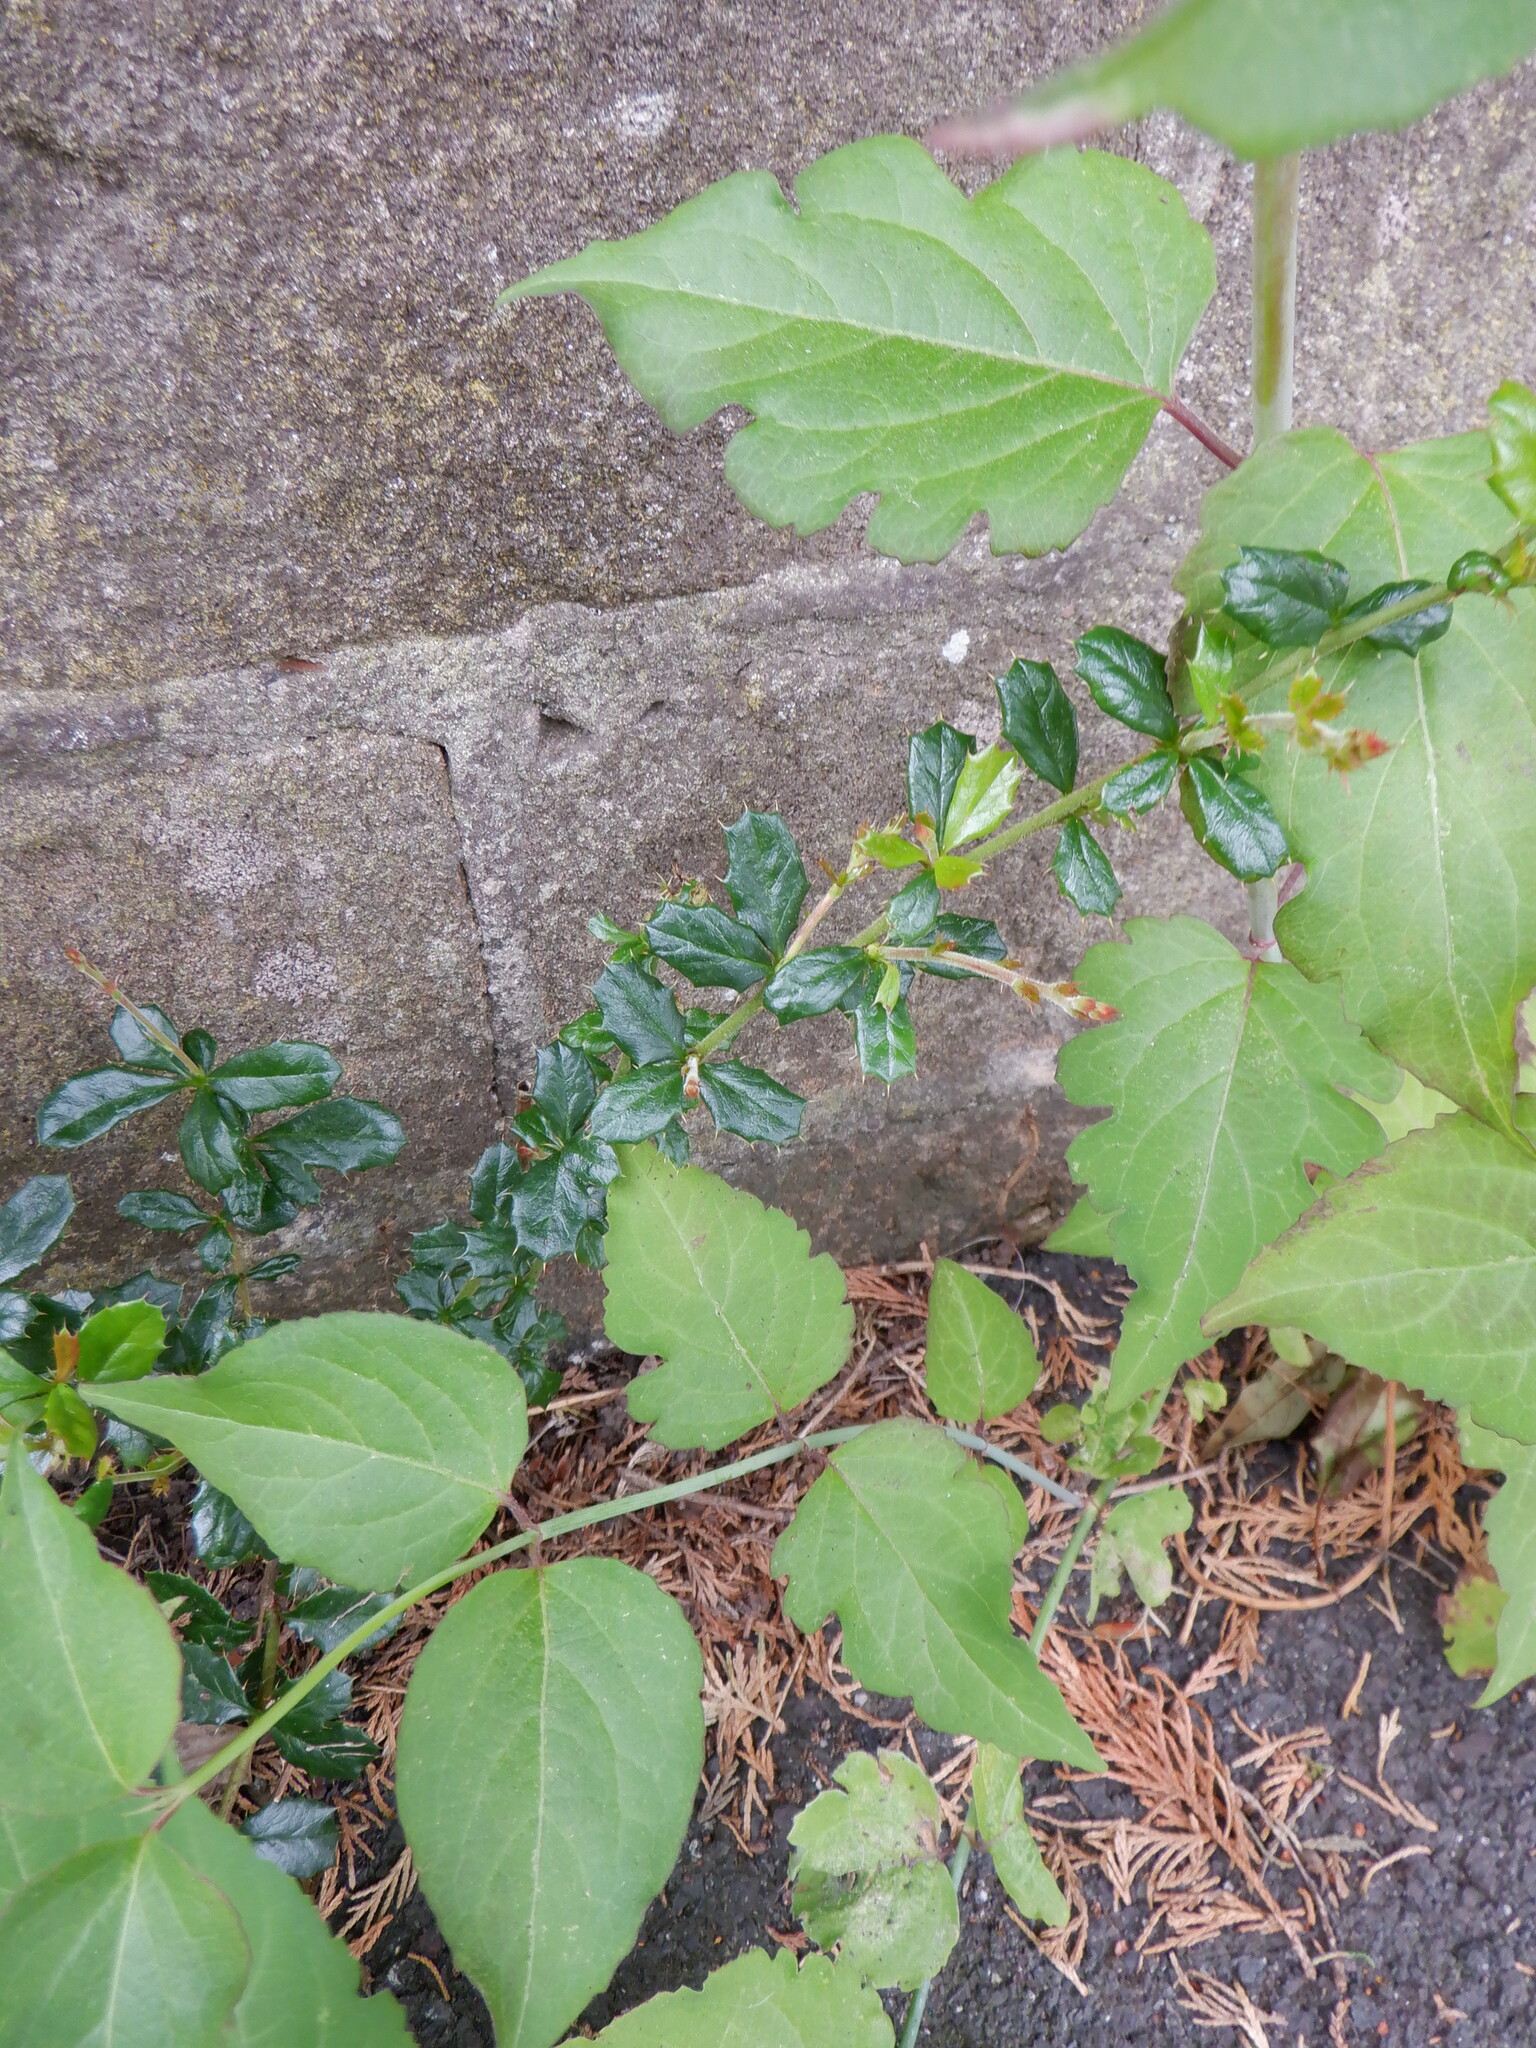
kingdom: Plantae
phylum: Tracheophyta
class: Magnoliopsida
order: Ranunculales
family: Berberidaceae
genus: Berberis
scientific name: Berberis darwinii
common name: Darwin's barberry
